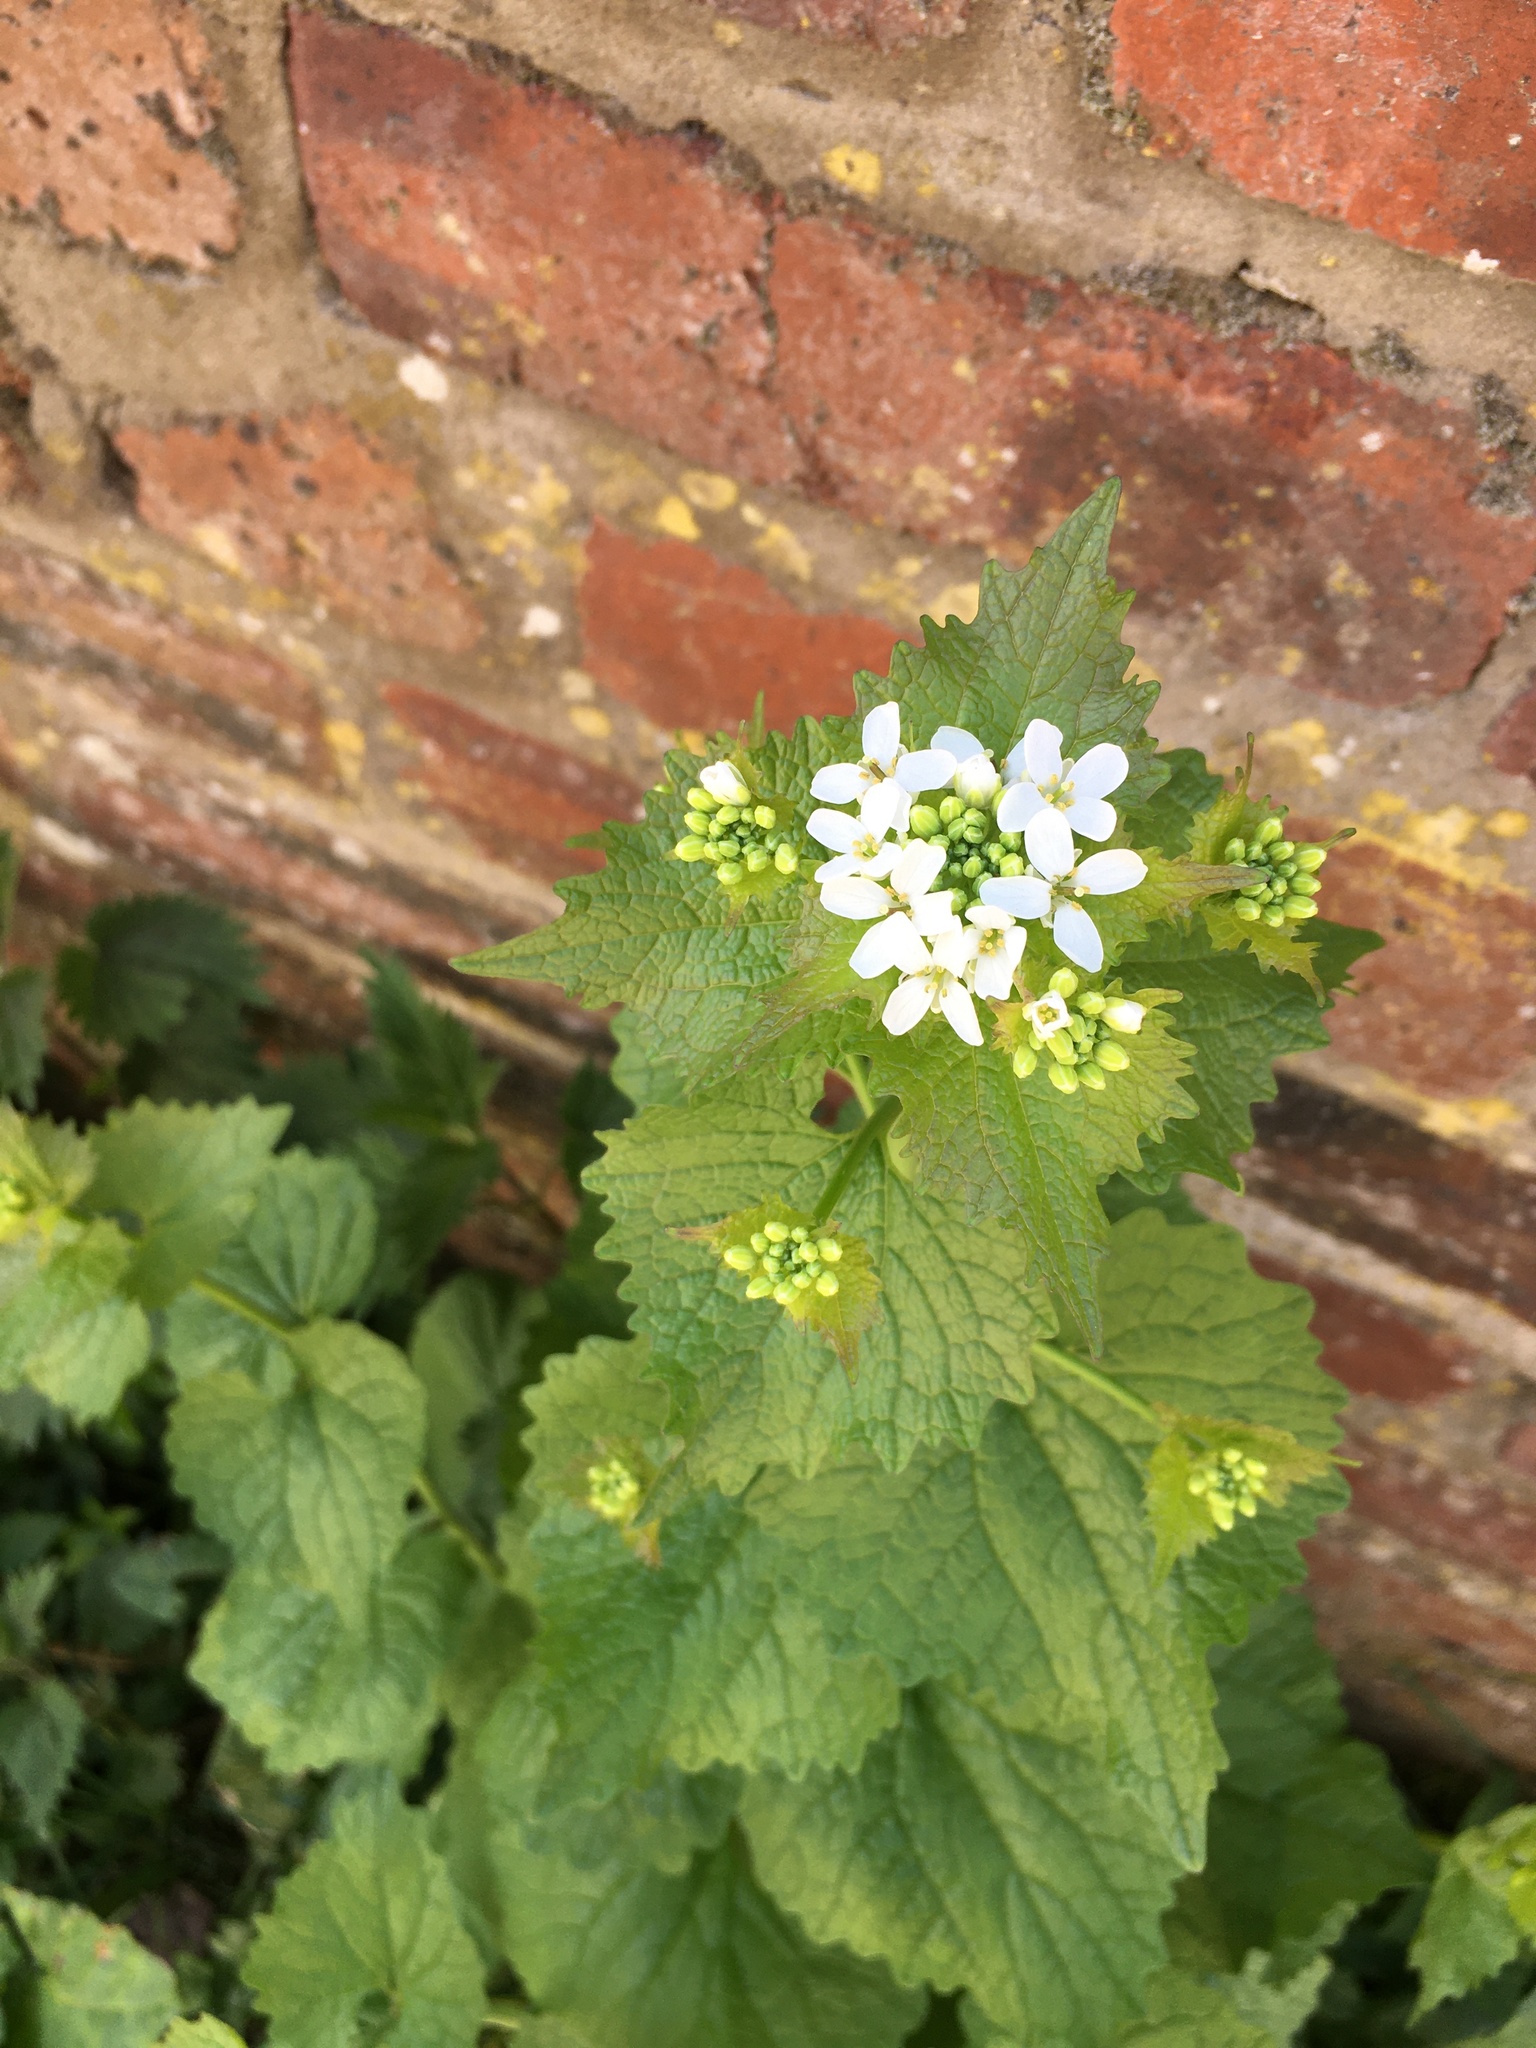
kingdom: Plantae
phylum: Tracheophyta
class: Magnoliopsida
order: Brassicales
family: Brassicaceae
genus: Alliaria
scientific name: Alliaria petiolata
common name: Garlic mustard
